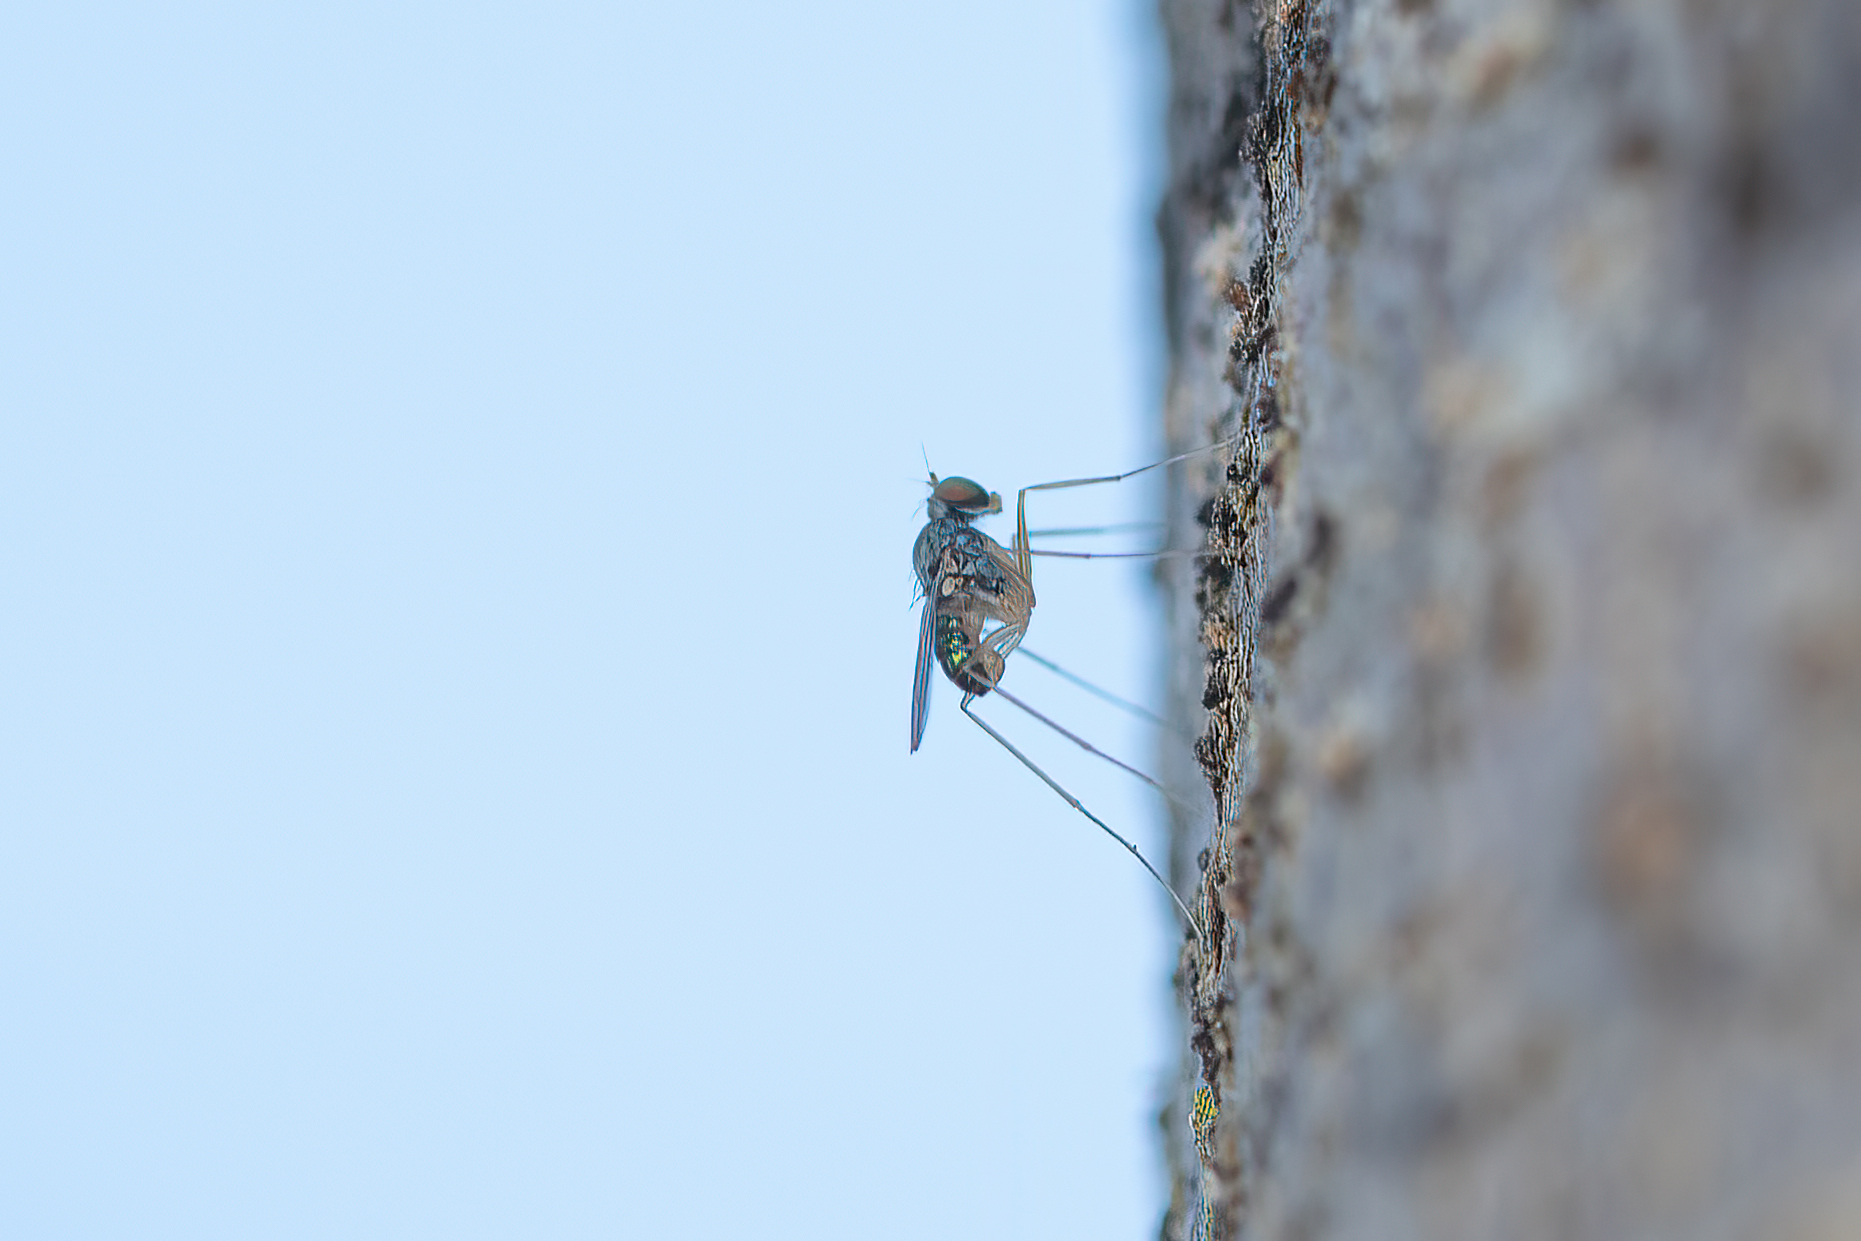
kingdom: Animalia
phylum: Arthropoda
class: Insecta
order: Diptera
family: Dolichopodidae
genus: Dactylomyia
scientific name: Dactylomyia lateralis
